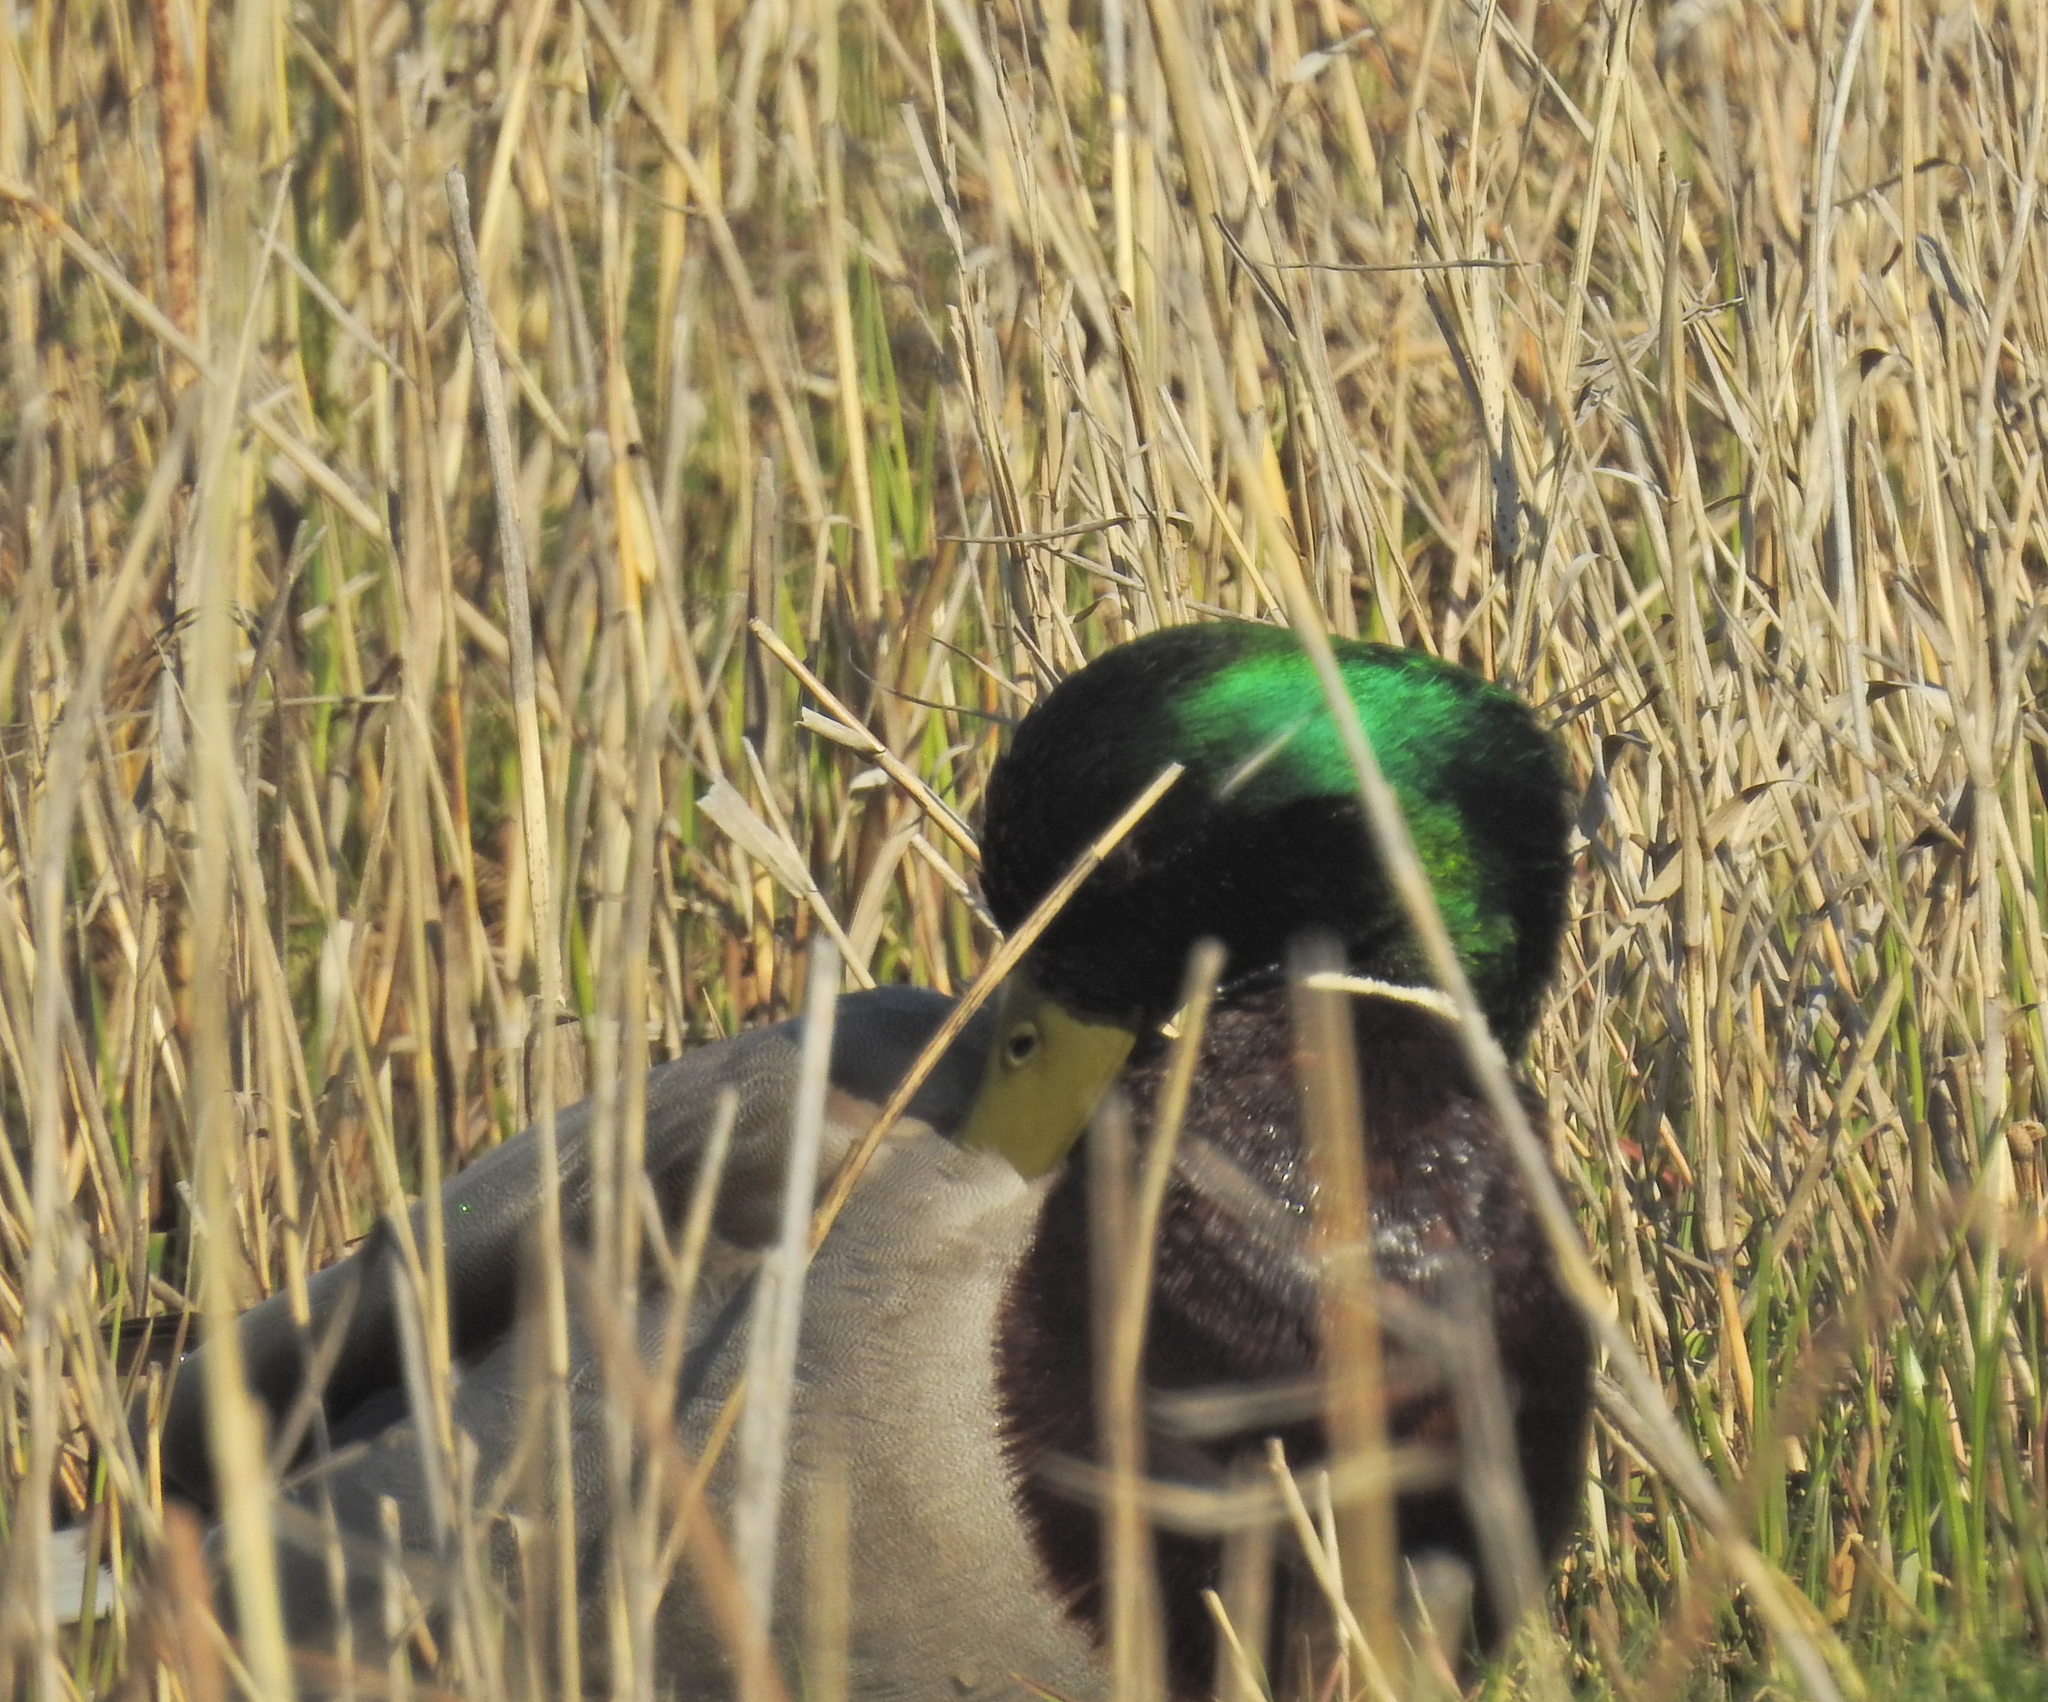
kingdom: Animalia
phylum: Chordata
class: Aves
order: Anseriformes
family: Anatidae
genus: Anas
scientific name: Anas platyrhynchos
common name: Mallard
